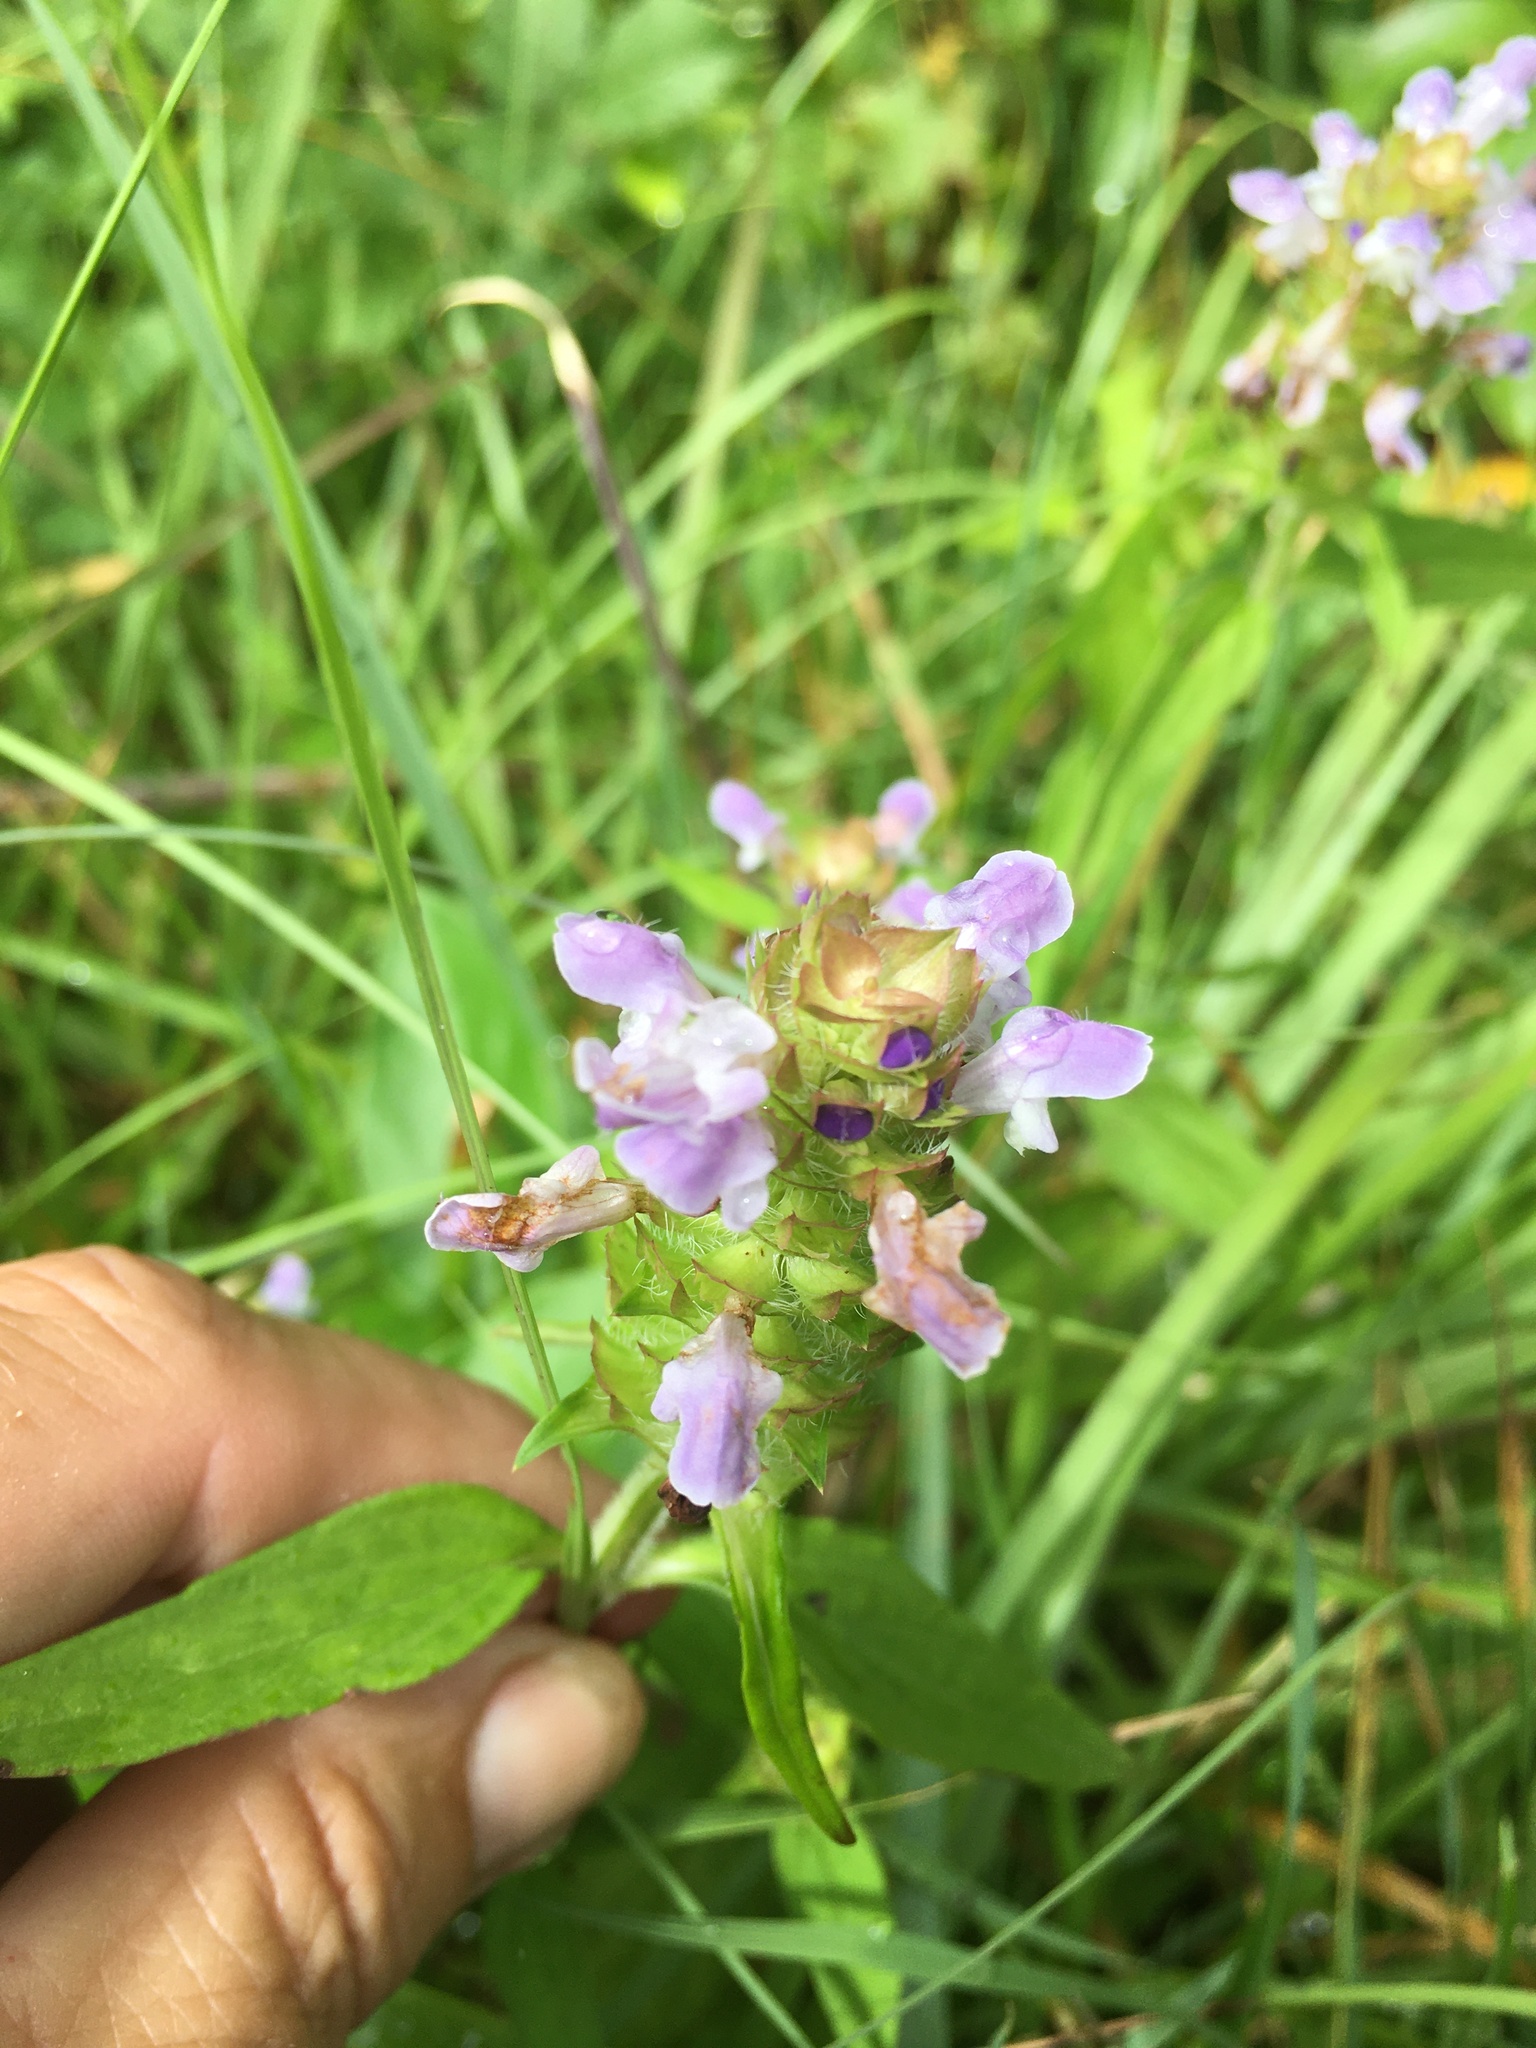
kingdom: Plantae
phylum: Tracheophyta
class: Magnoliopsida
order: Lamiales
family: Lamiaceae
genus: Prunella
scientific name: Prunella vulgaris
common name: Heal-all
